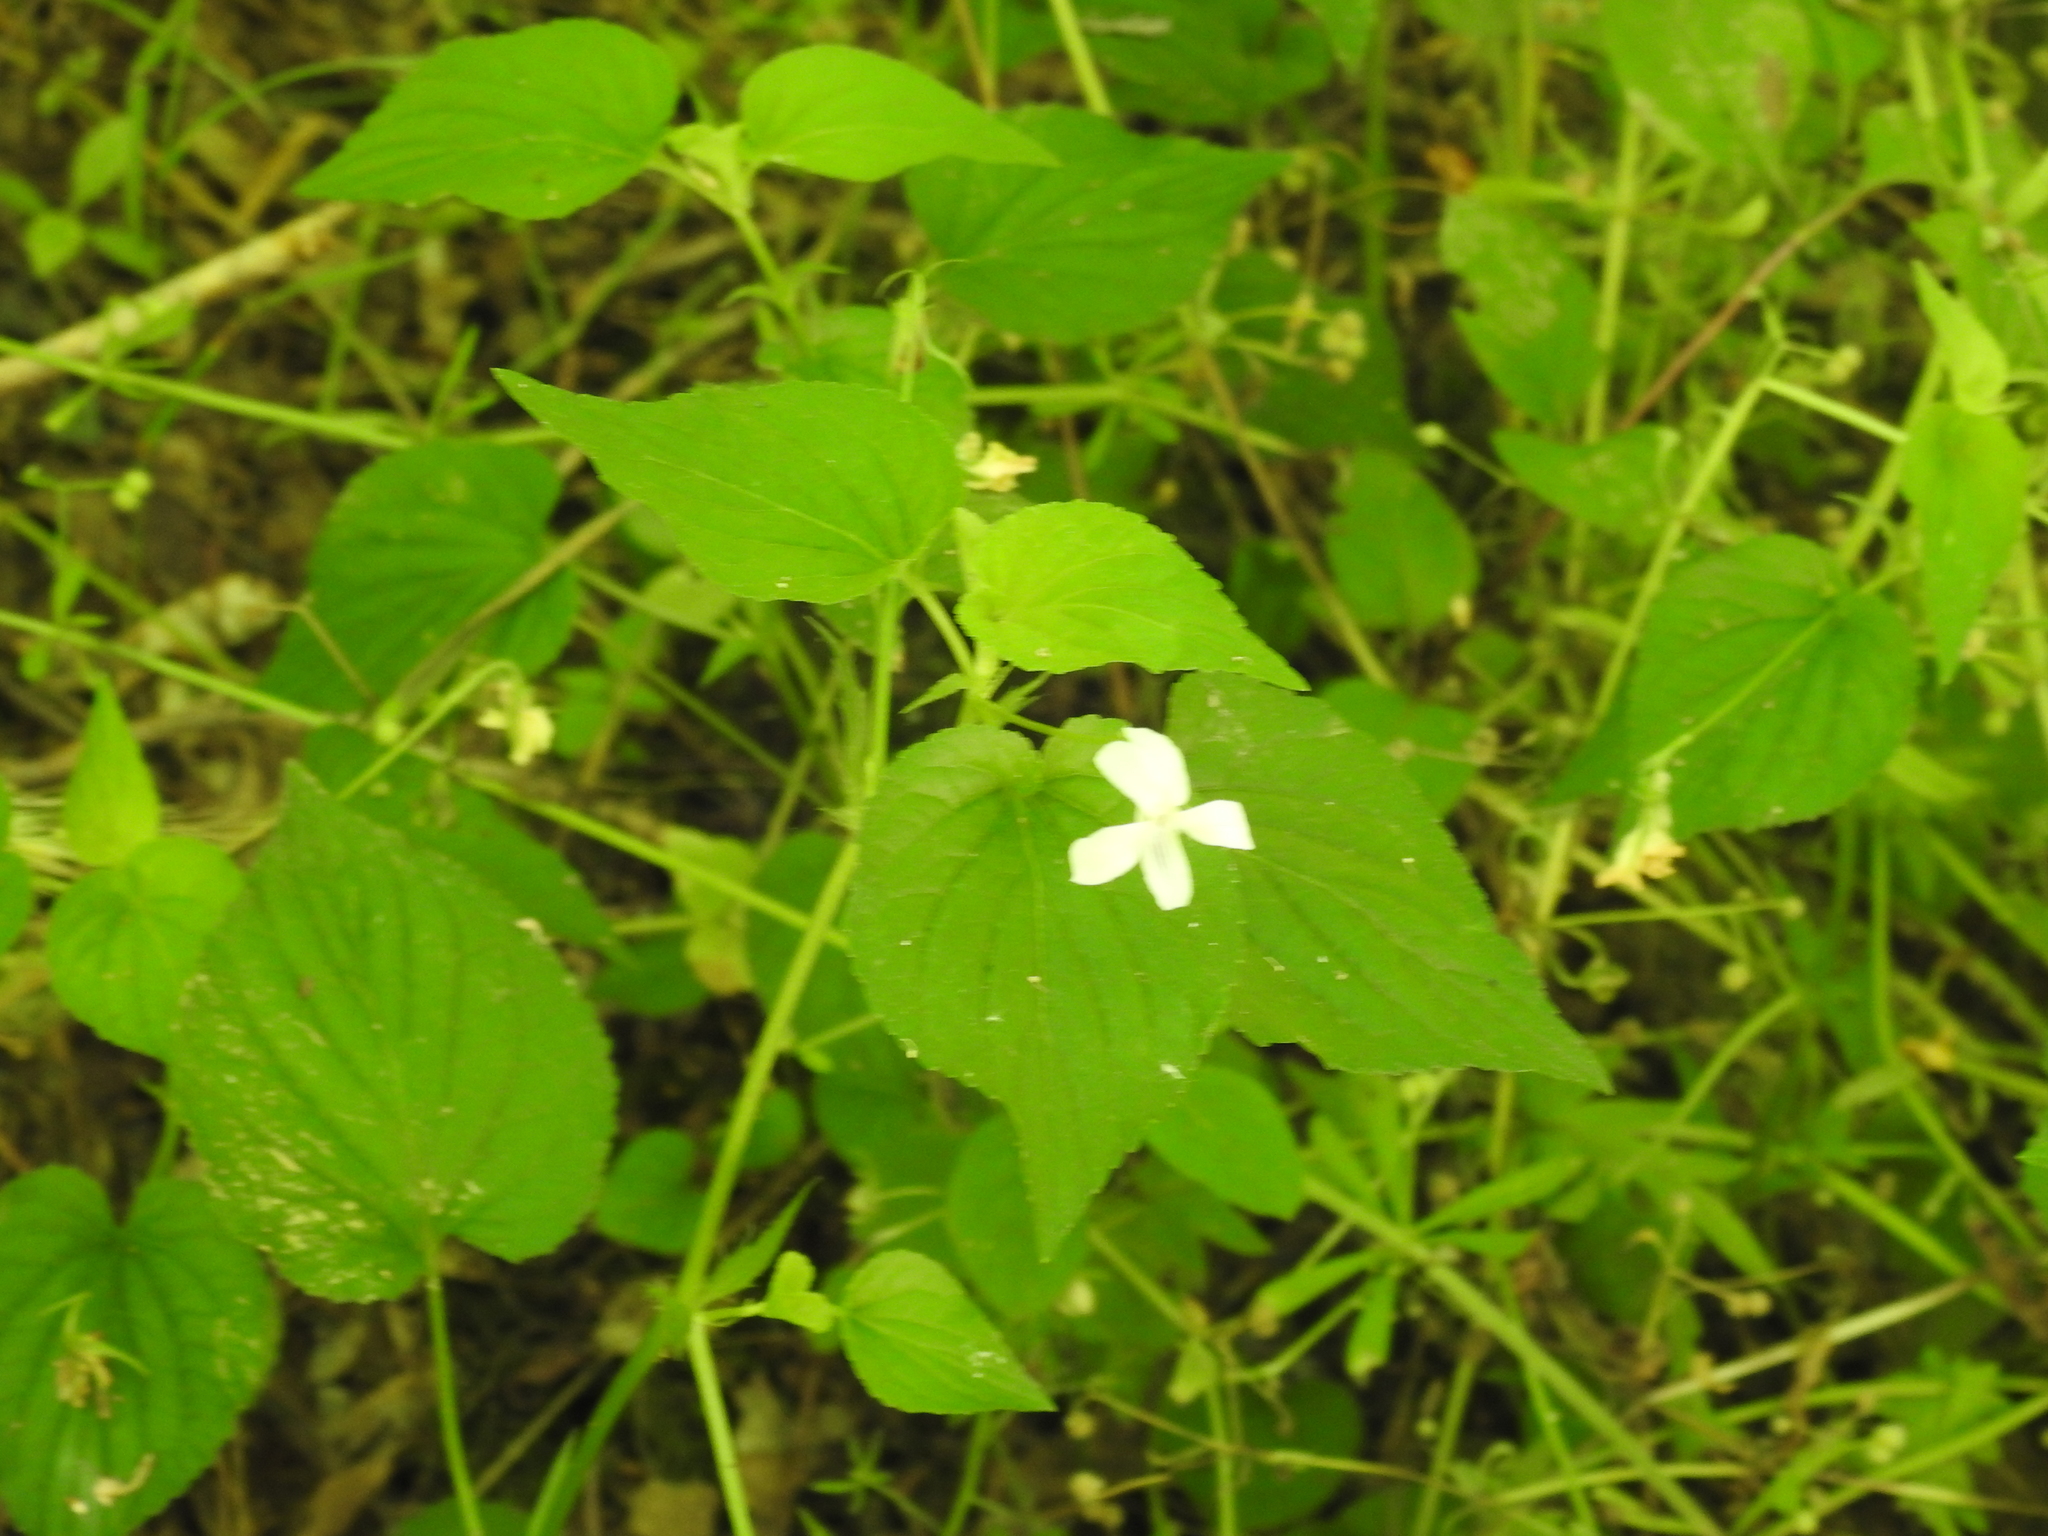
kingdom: Plantae
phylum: Tracheophyta
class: Magnoliopsida
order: Malpighiales
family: Violaceae
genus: Viola
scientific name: Viola striata
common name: Cream violet
